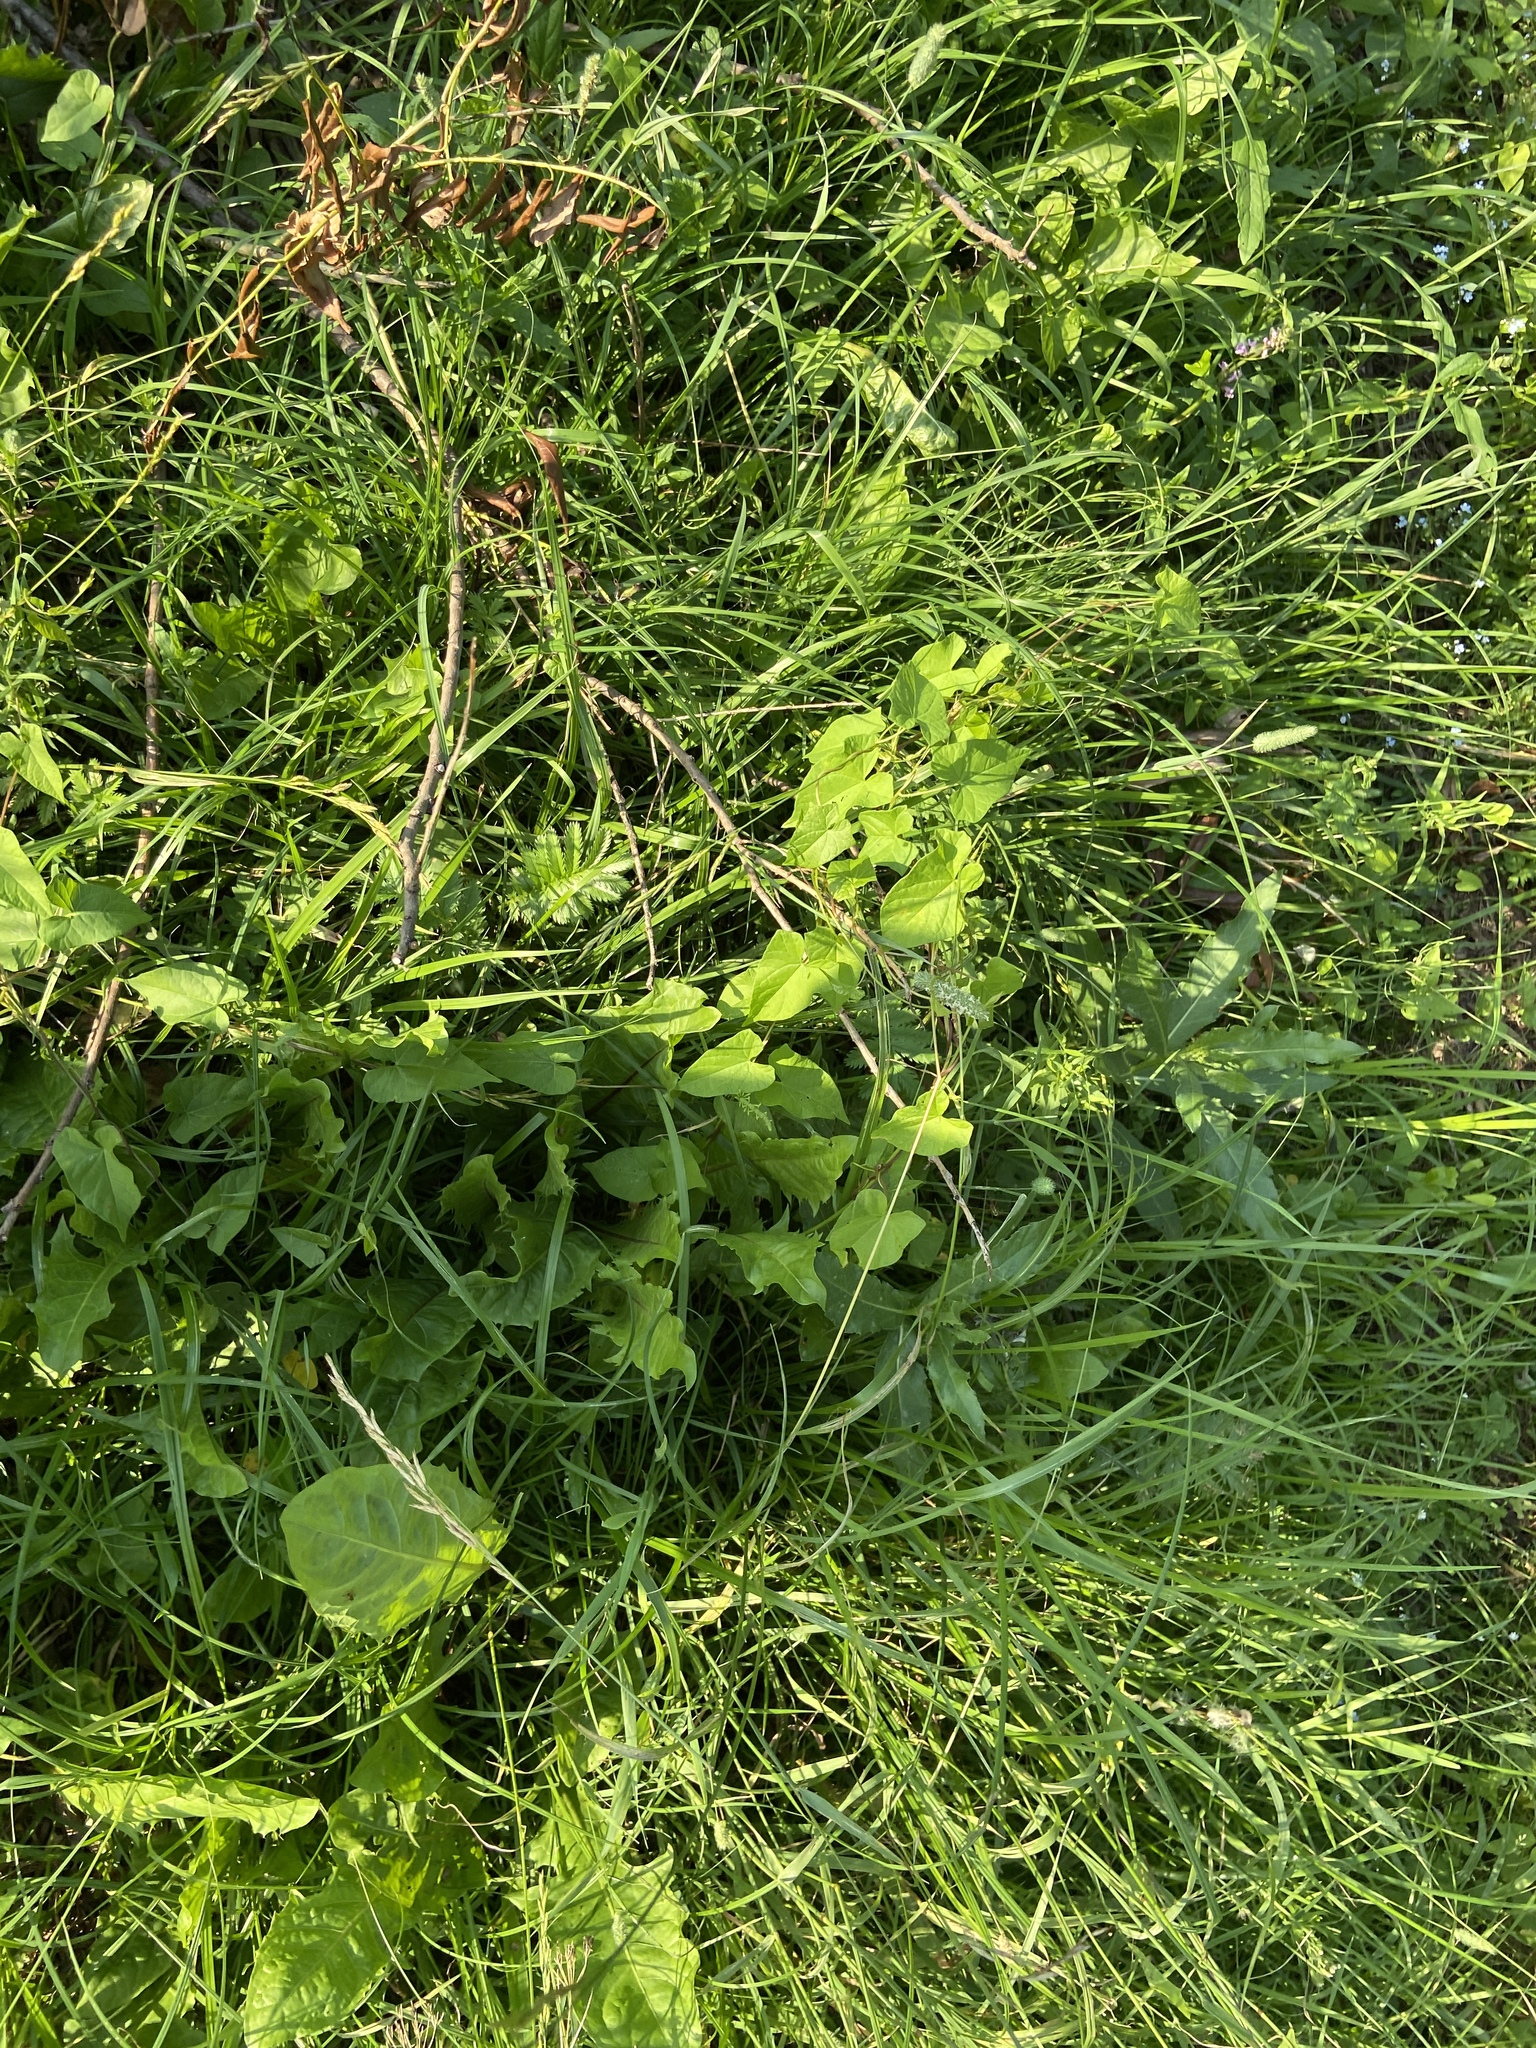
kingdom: Plantae
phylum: Tracheophyta
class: Magnoliopsida
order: Asterales
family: Asteraceae
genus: Taraxacum
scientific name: Taraxacum officinale
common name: Common dandelion
